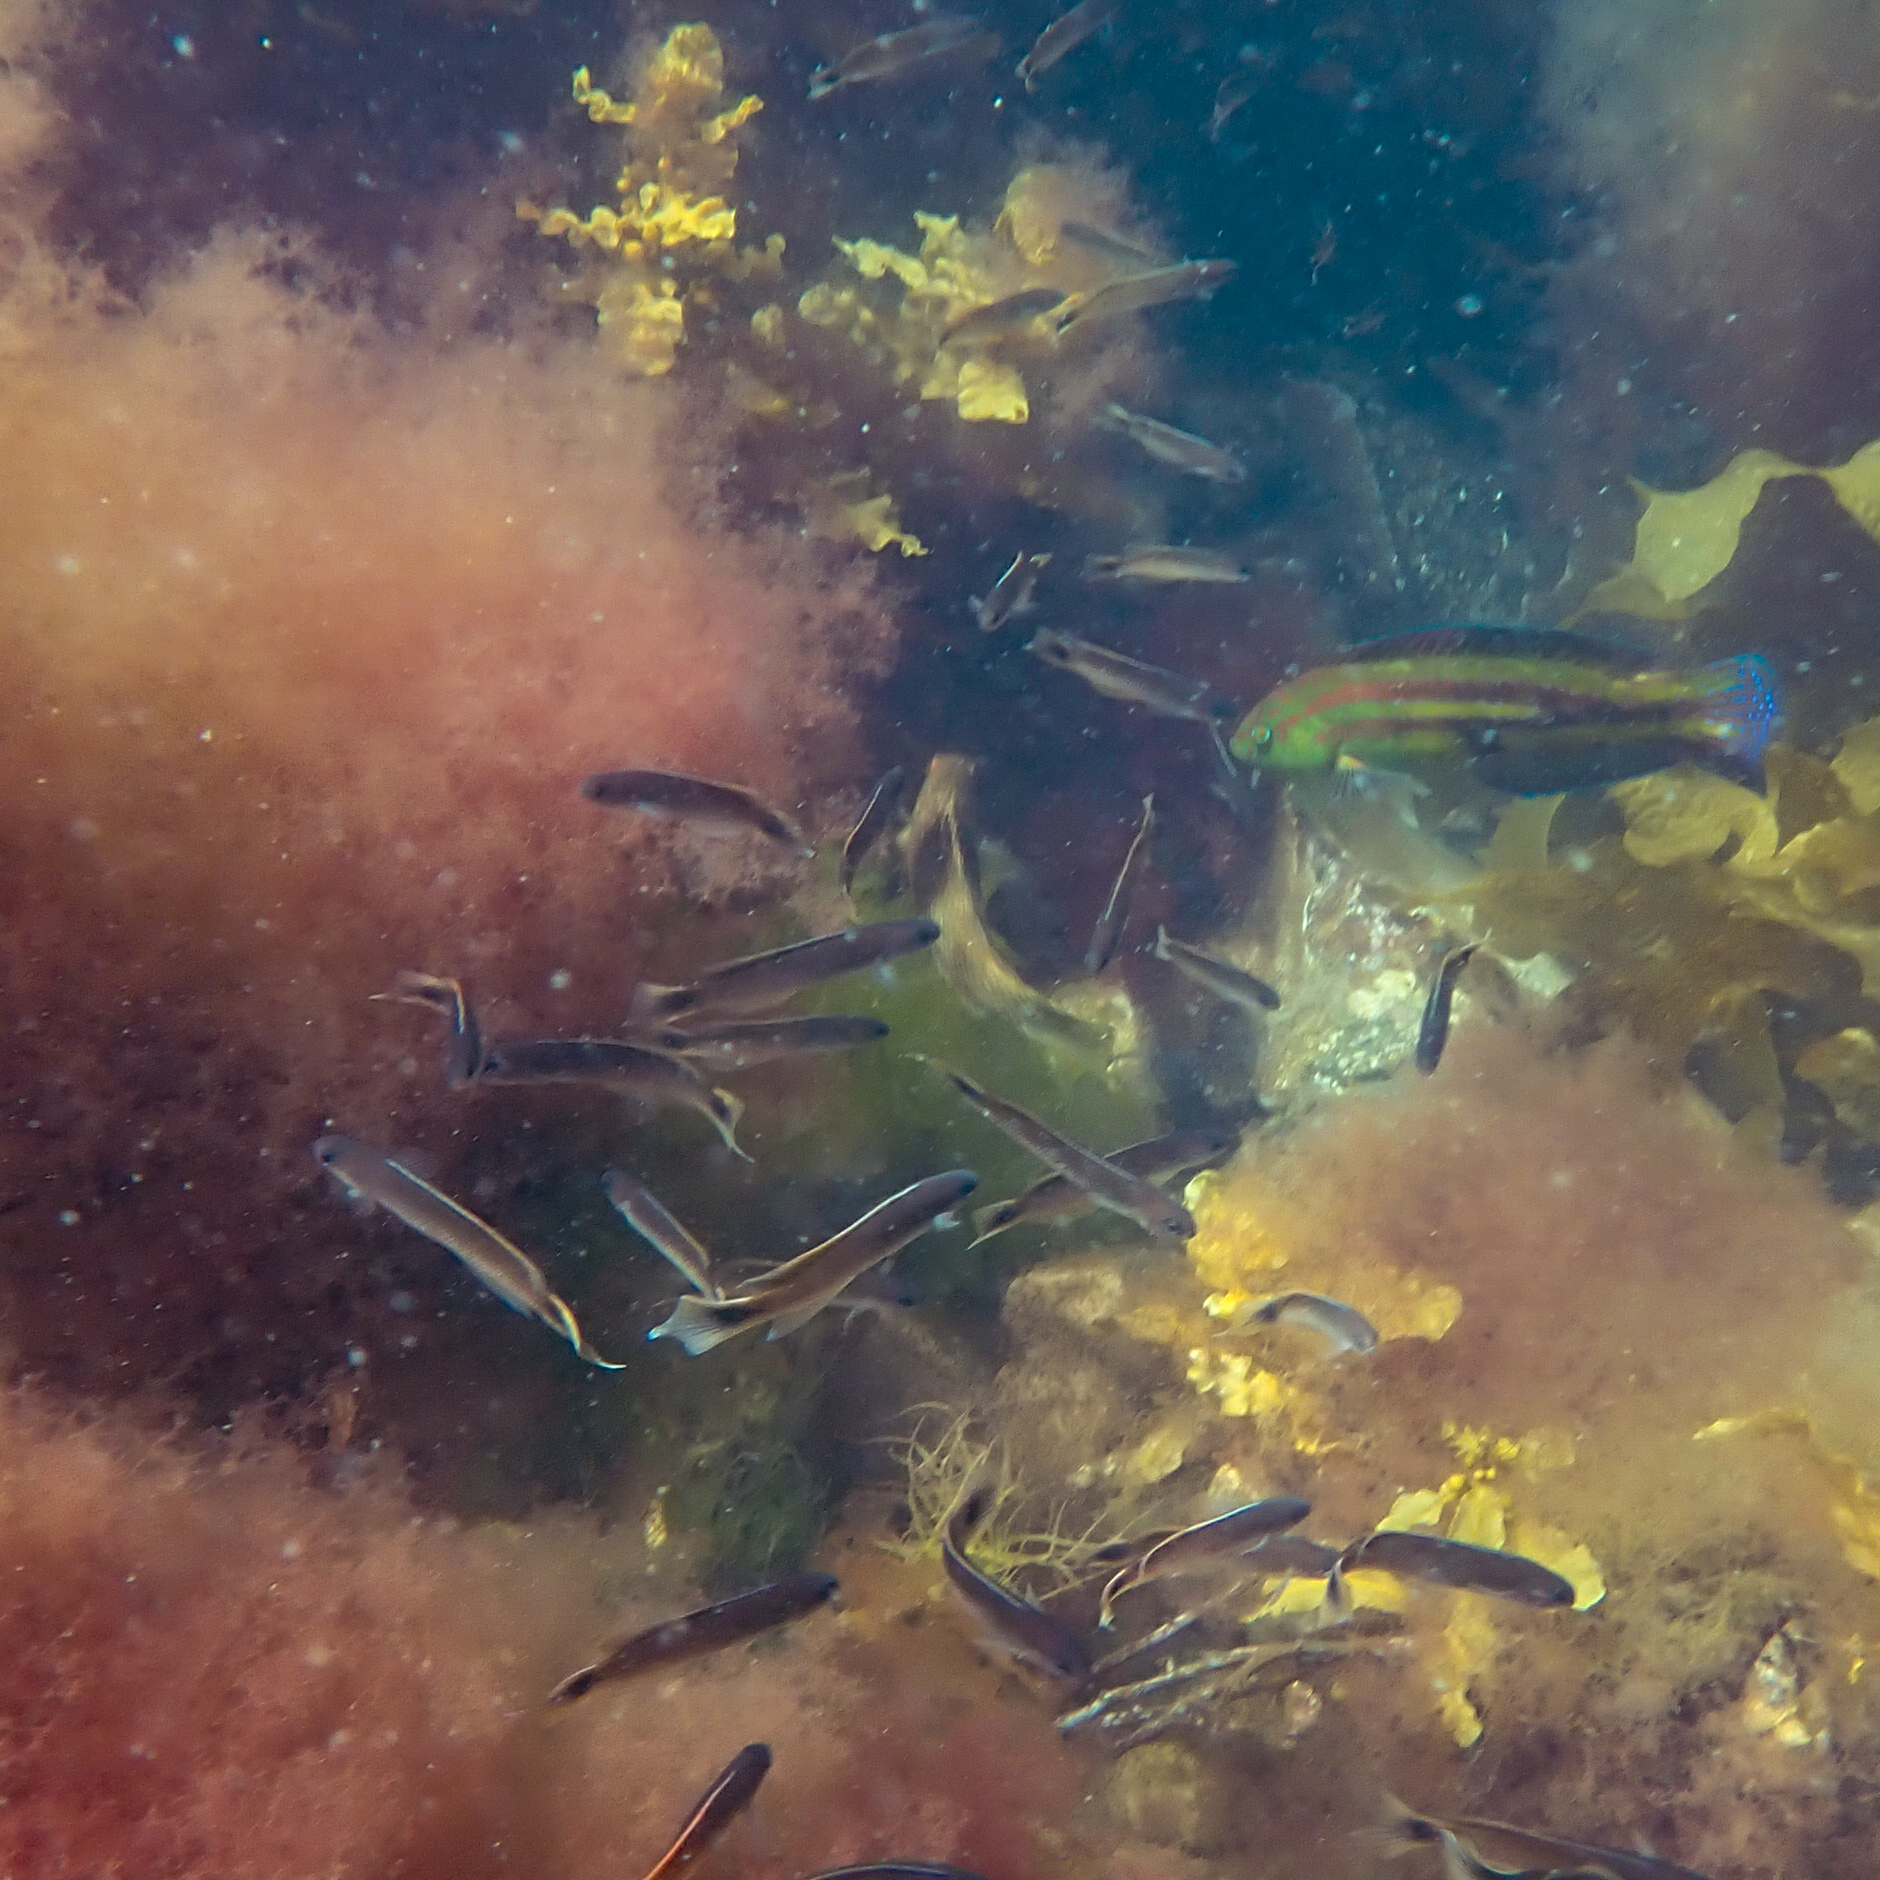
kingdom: Animalia
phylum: Chordata
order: Perciformes
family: Labridae
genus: Pictilabrus
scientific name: Pictilabrus laticlavius
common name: Patrician wrasse
